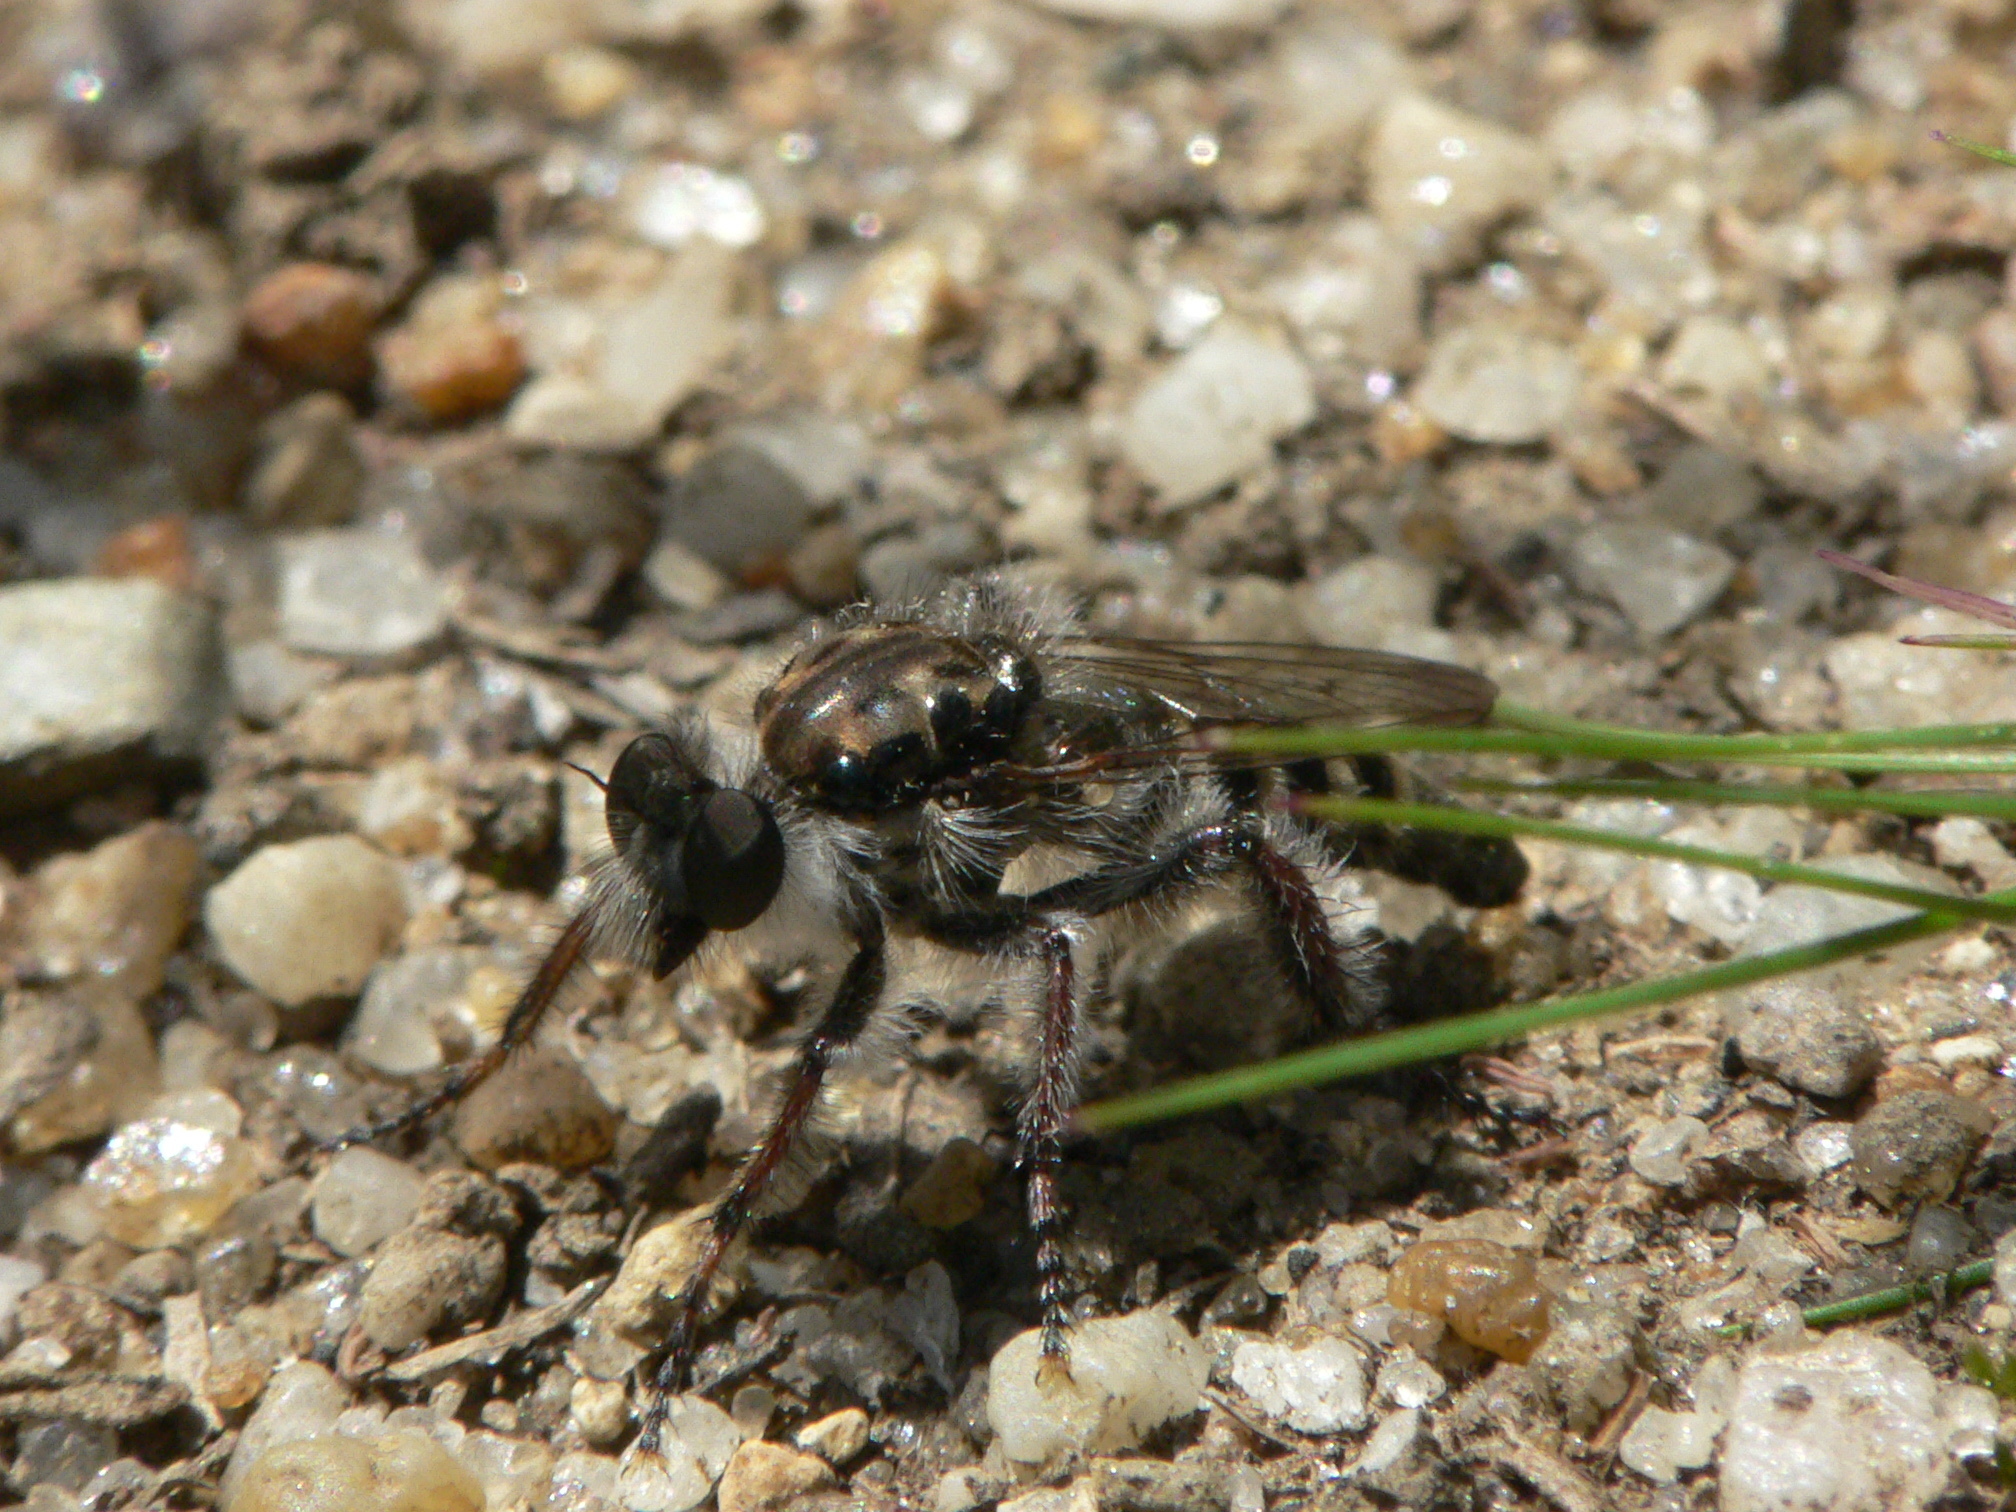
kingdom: Animalia
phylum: Arthropoda
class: Insecta
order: Diptera
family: Asilidae
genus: Cyrtopogon
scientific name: Cyrtopogon marginalis
